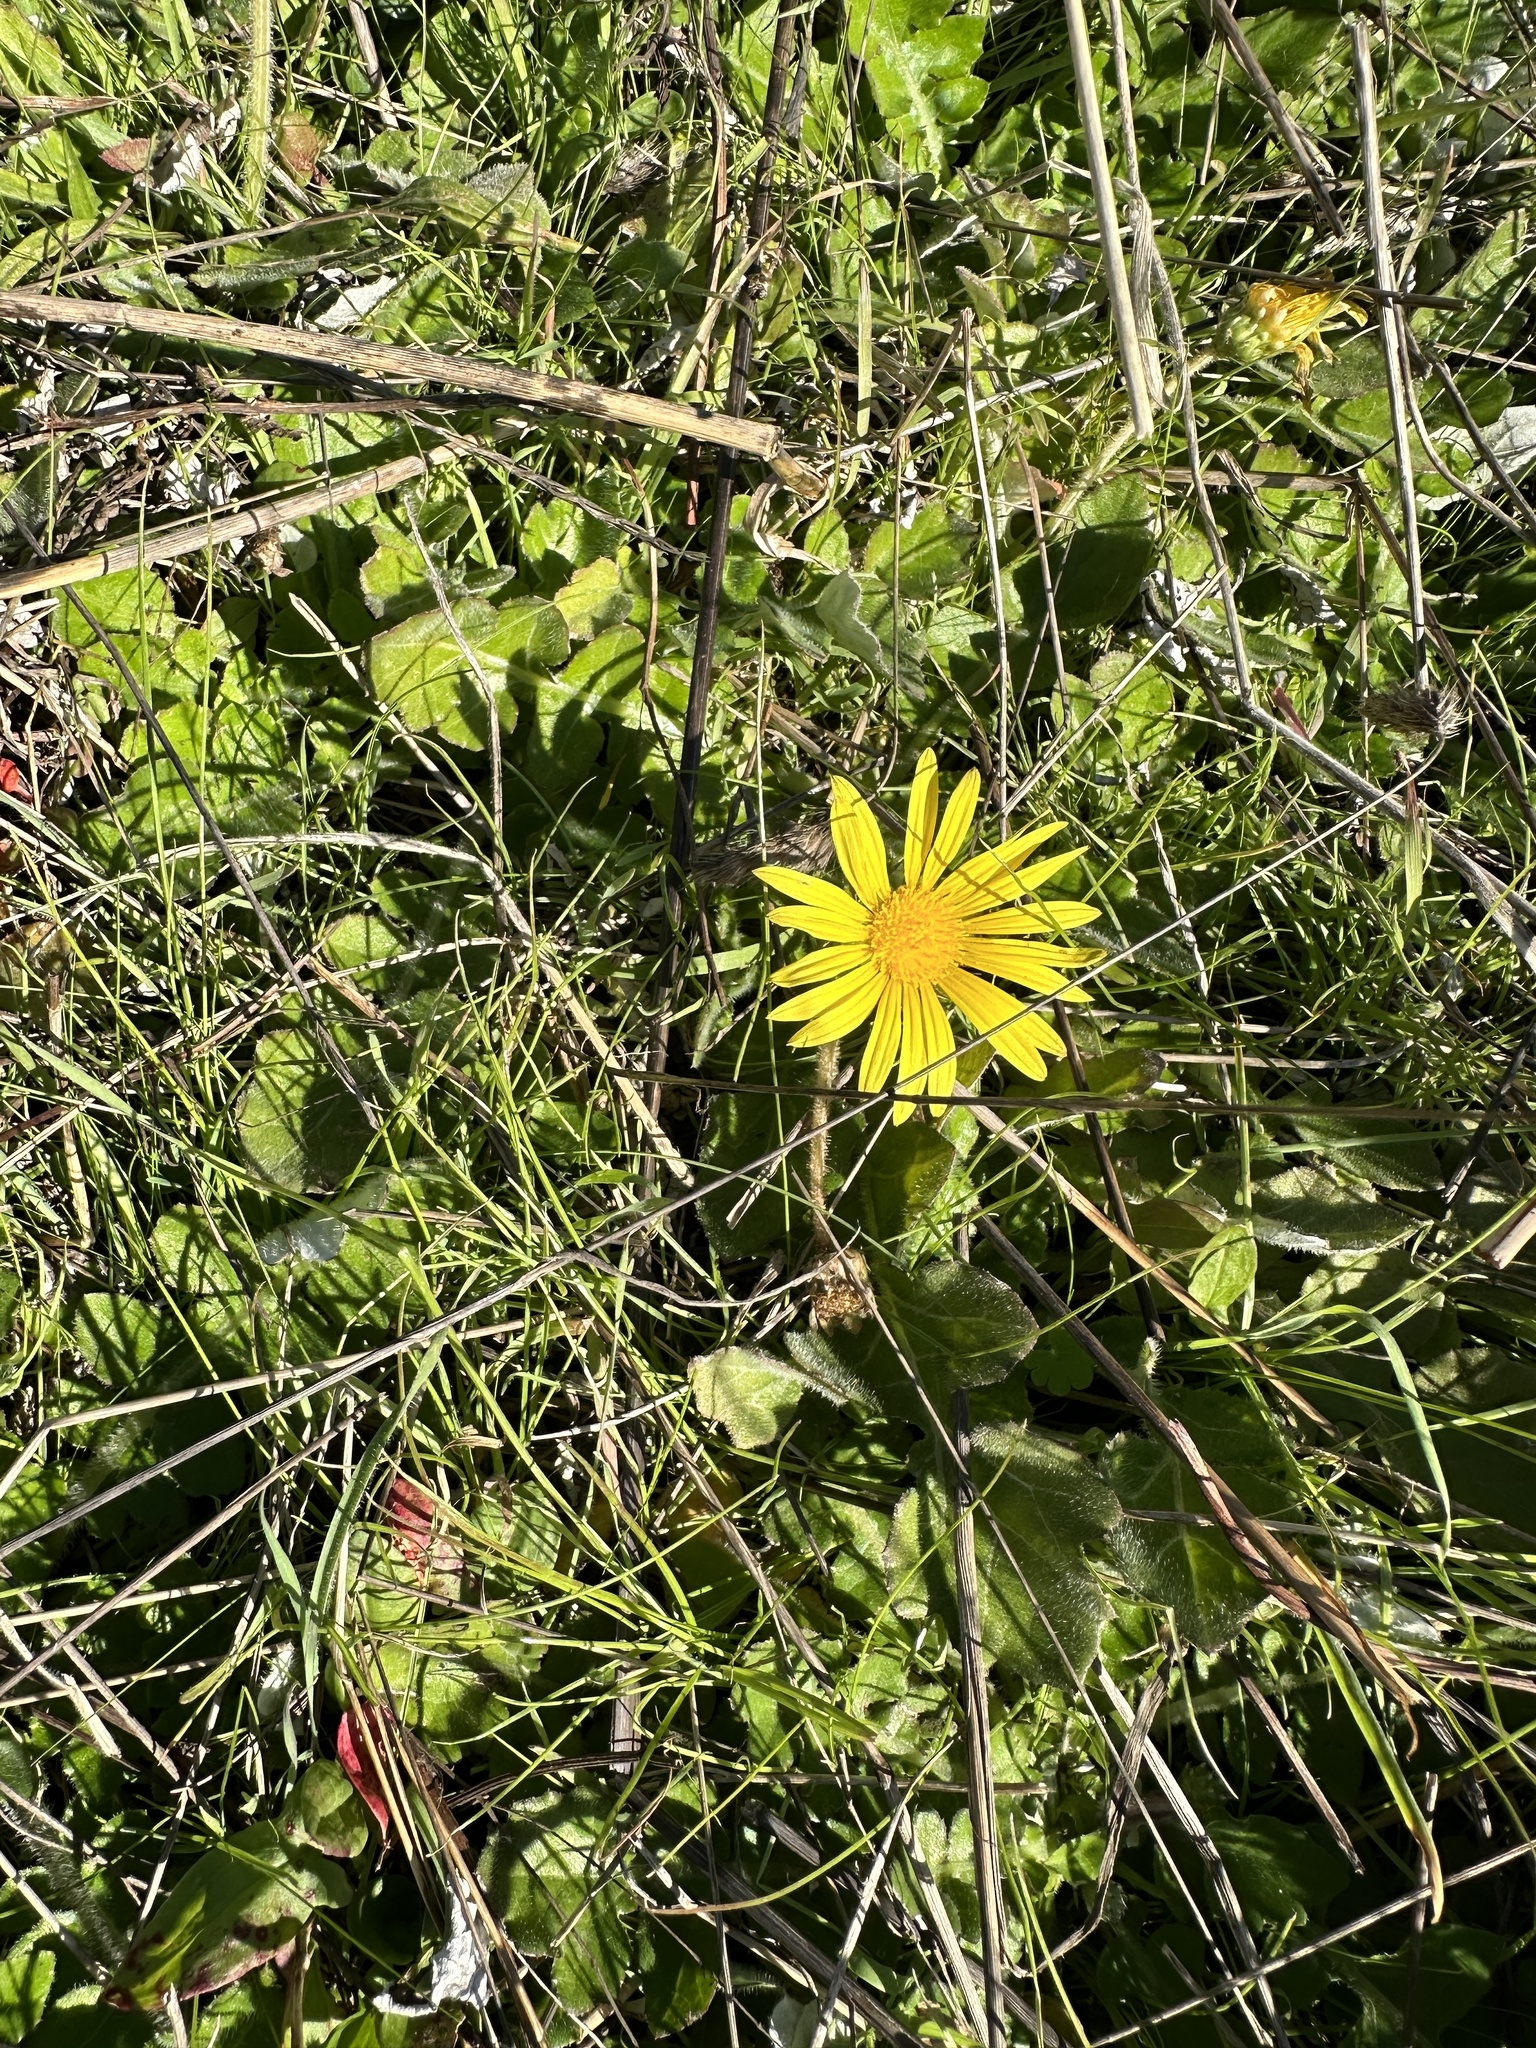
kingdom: Plantae
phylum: Tracheophyta
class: Magnoliopsida
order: Asterales
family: Asteraceae
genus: Arctotheca
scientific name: Arctotheca prostrata
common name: Capeweed
